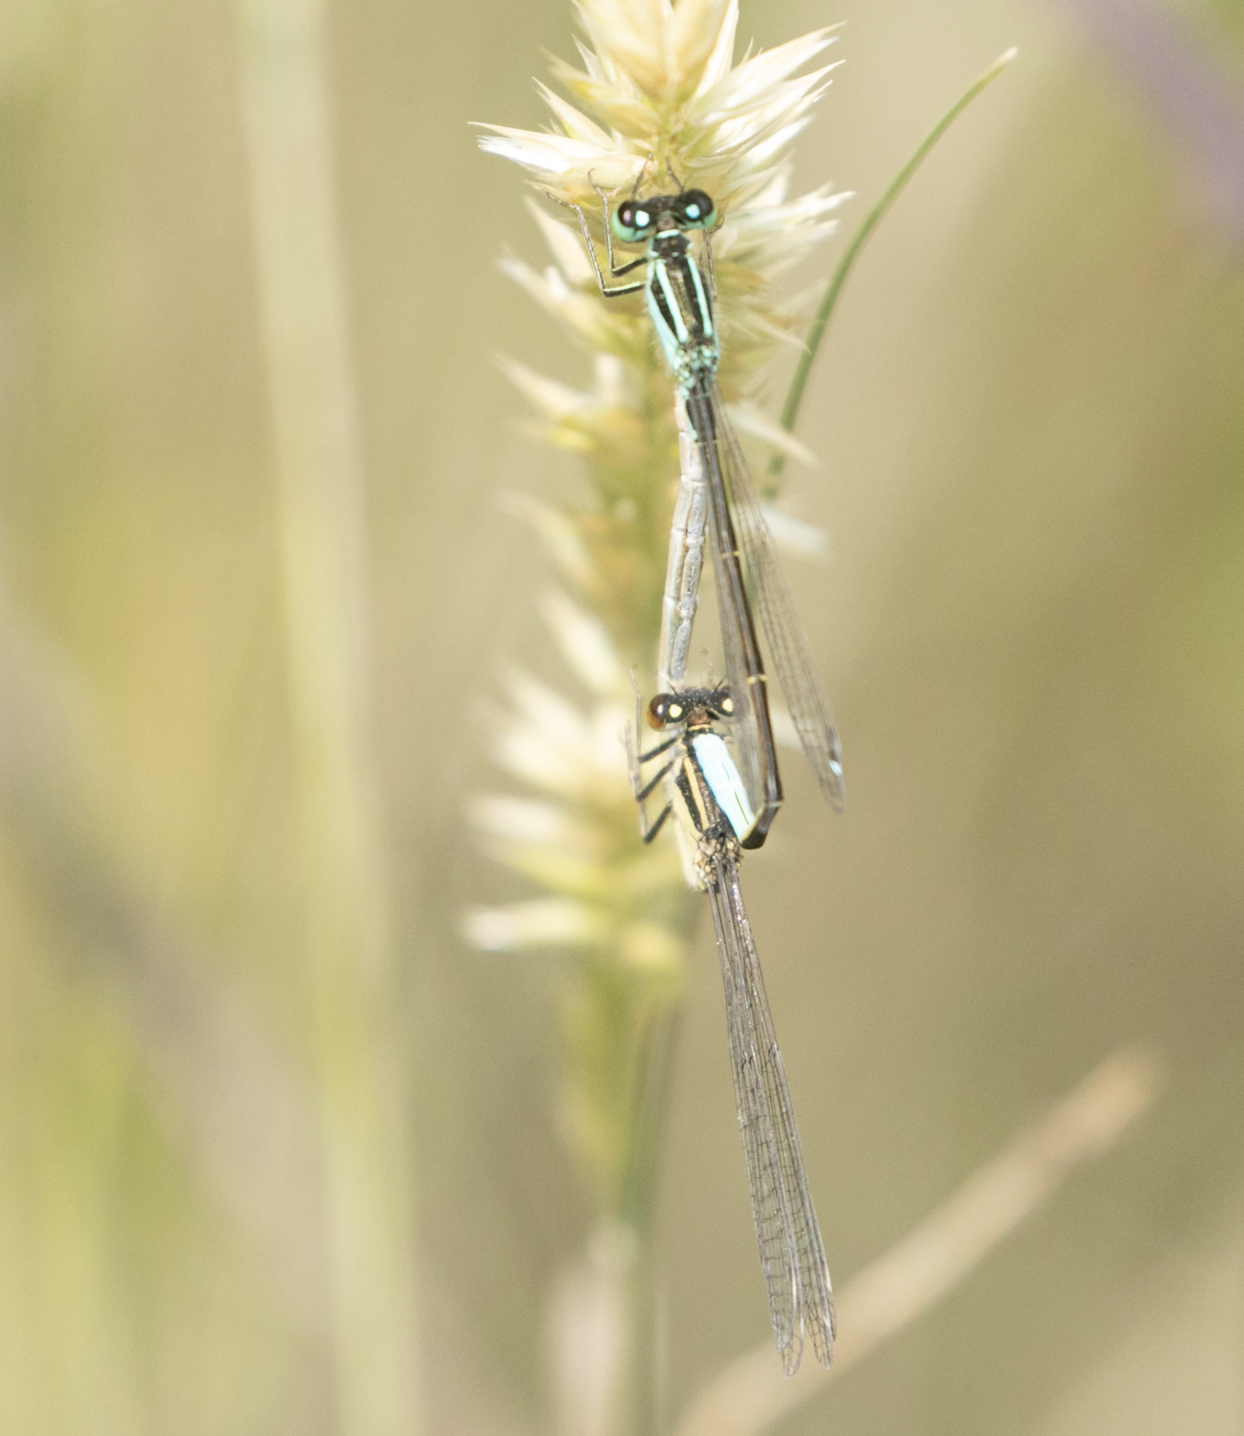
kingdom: Animalia
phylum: Arthropoda
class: Insecta
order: Odonata
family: Coenagrionidae
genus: Ischnura
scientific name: Ischnura elegans
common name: Blue-tailed damselfly
